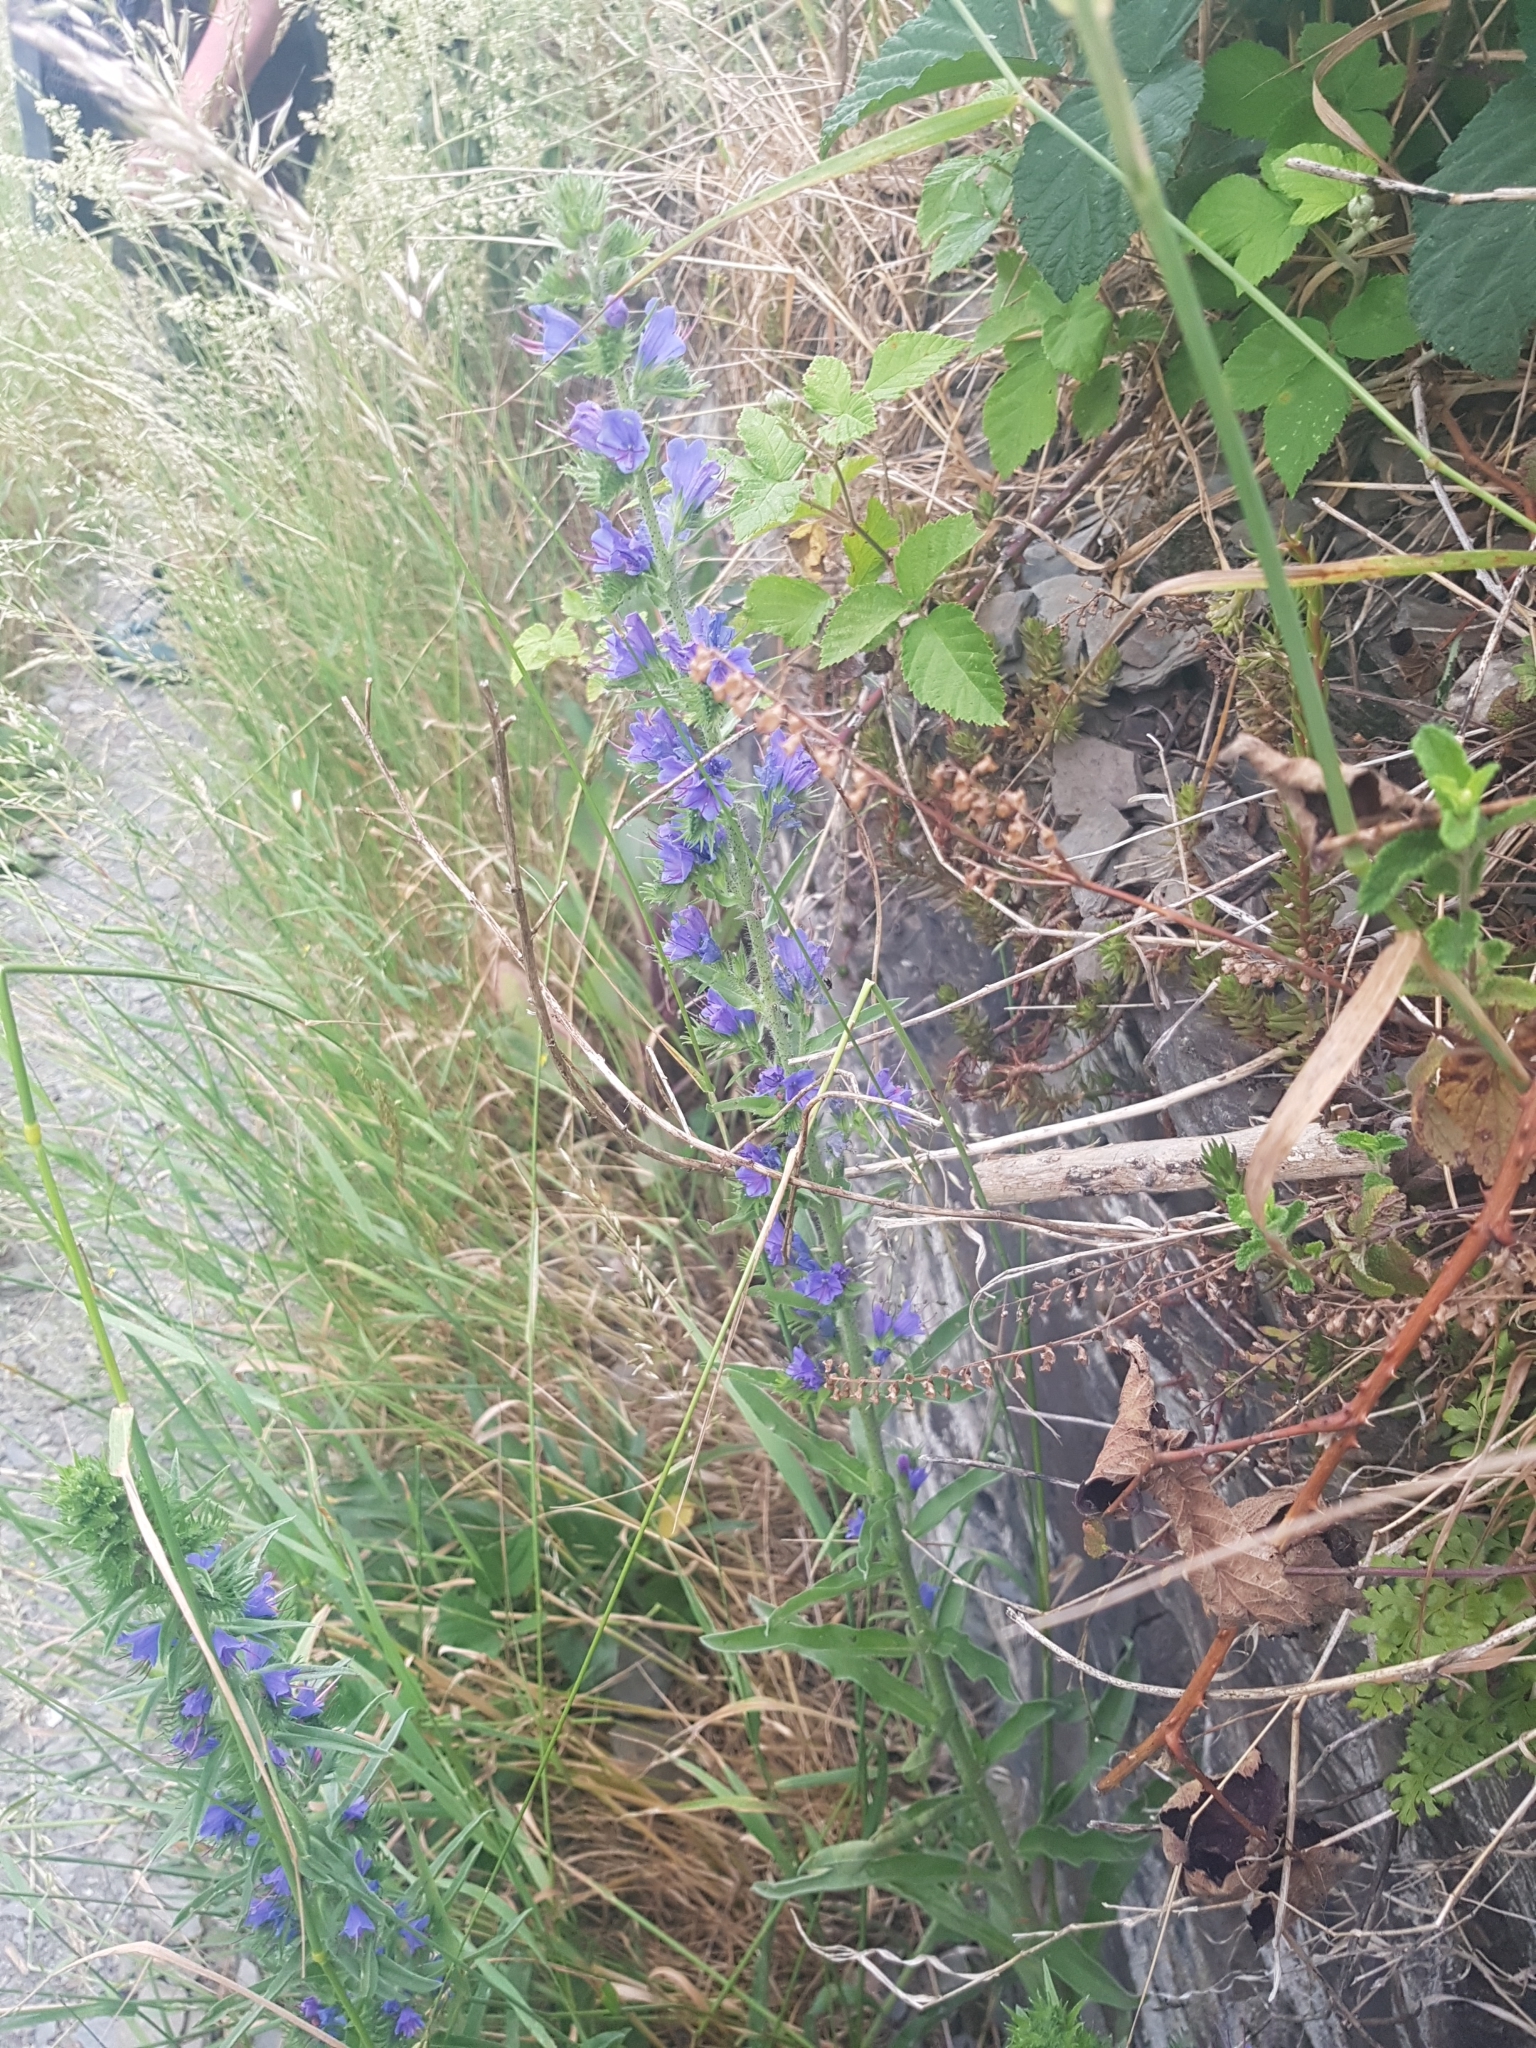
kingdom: Plantae
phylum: Tracheophyta
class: Magnoliopsida
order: Boraginales
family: Boraginaceae
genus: Echium
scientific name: Echium vulgare
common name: Common viper's bugloss
